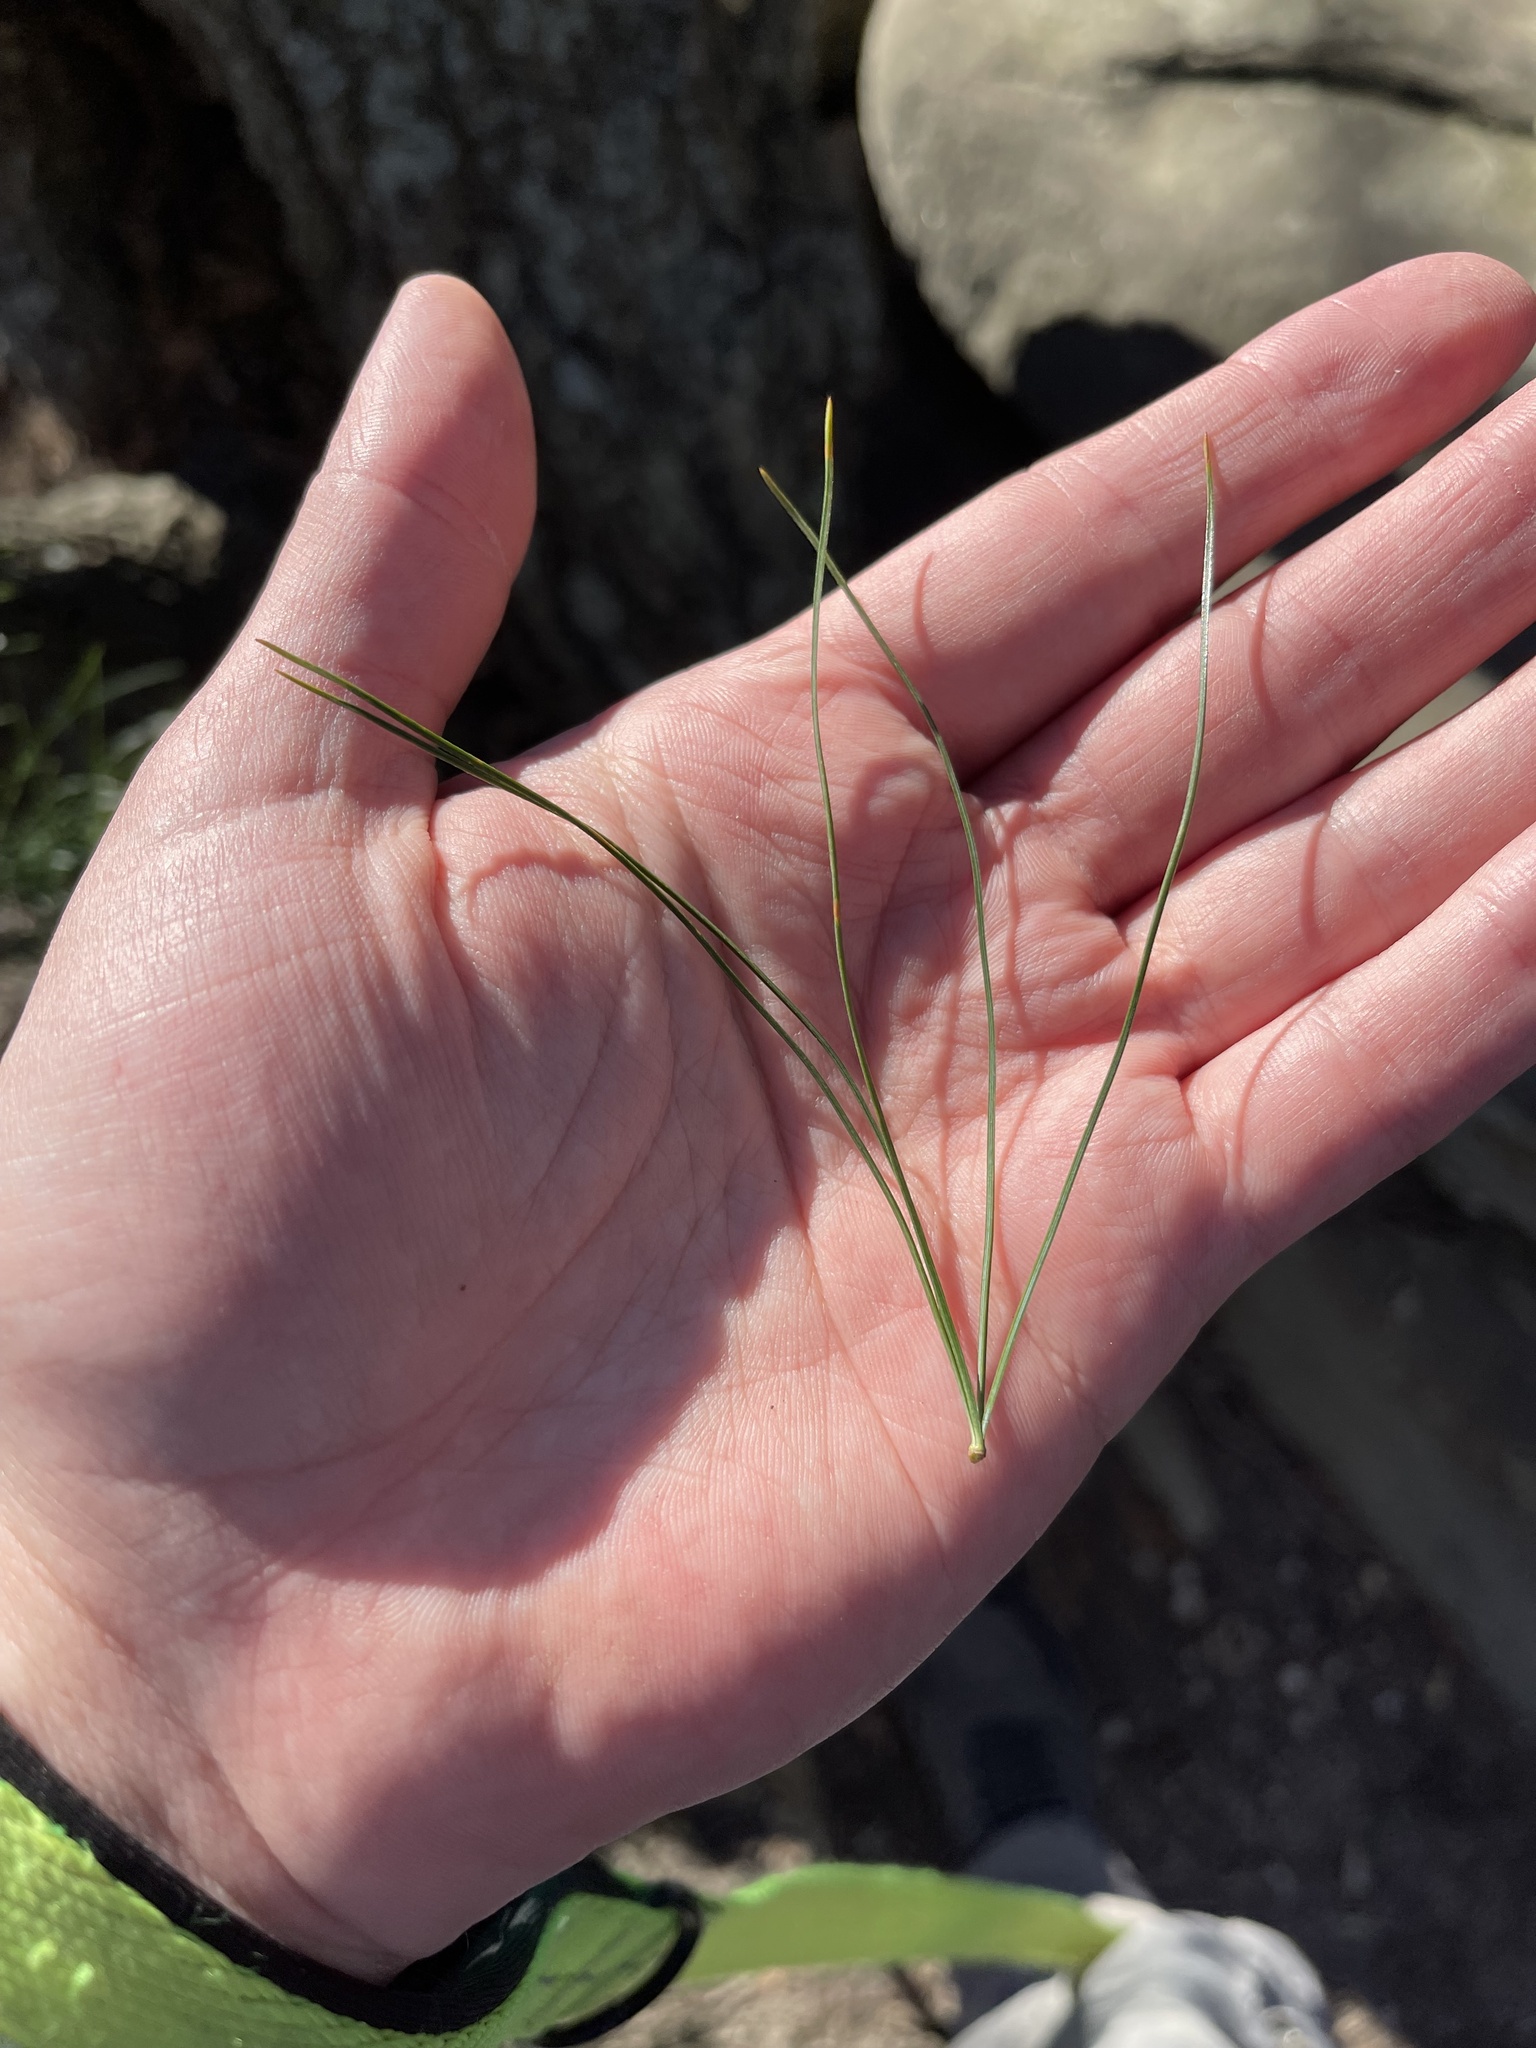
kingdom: Plantae
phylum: Tracheophyta
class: Pinopsida
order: Pinales
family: Pinaceae
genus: Pinus
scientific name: Pinus strobus
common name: Weymouth pine
